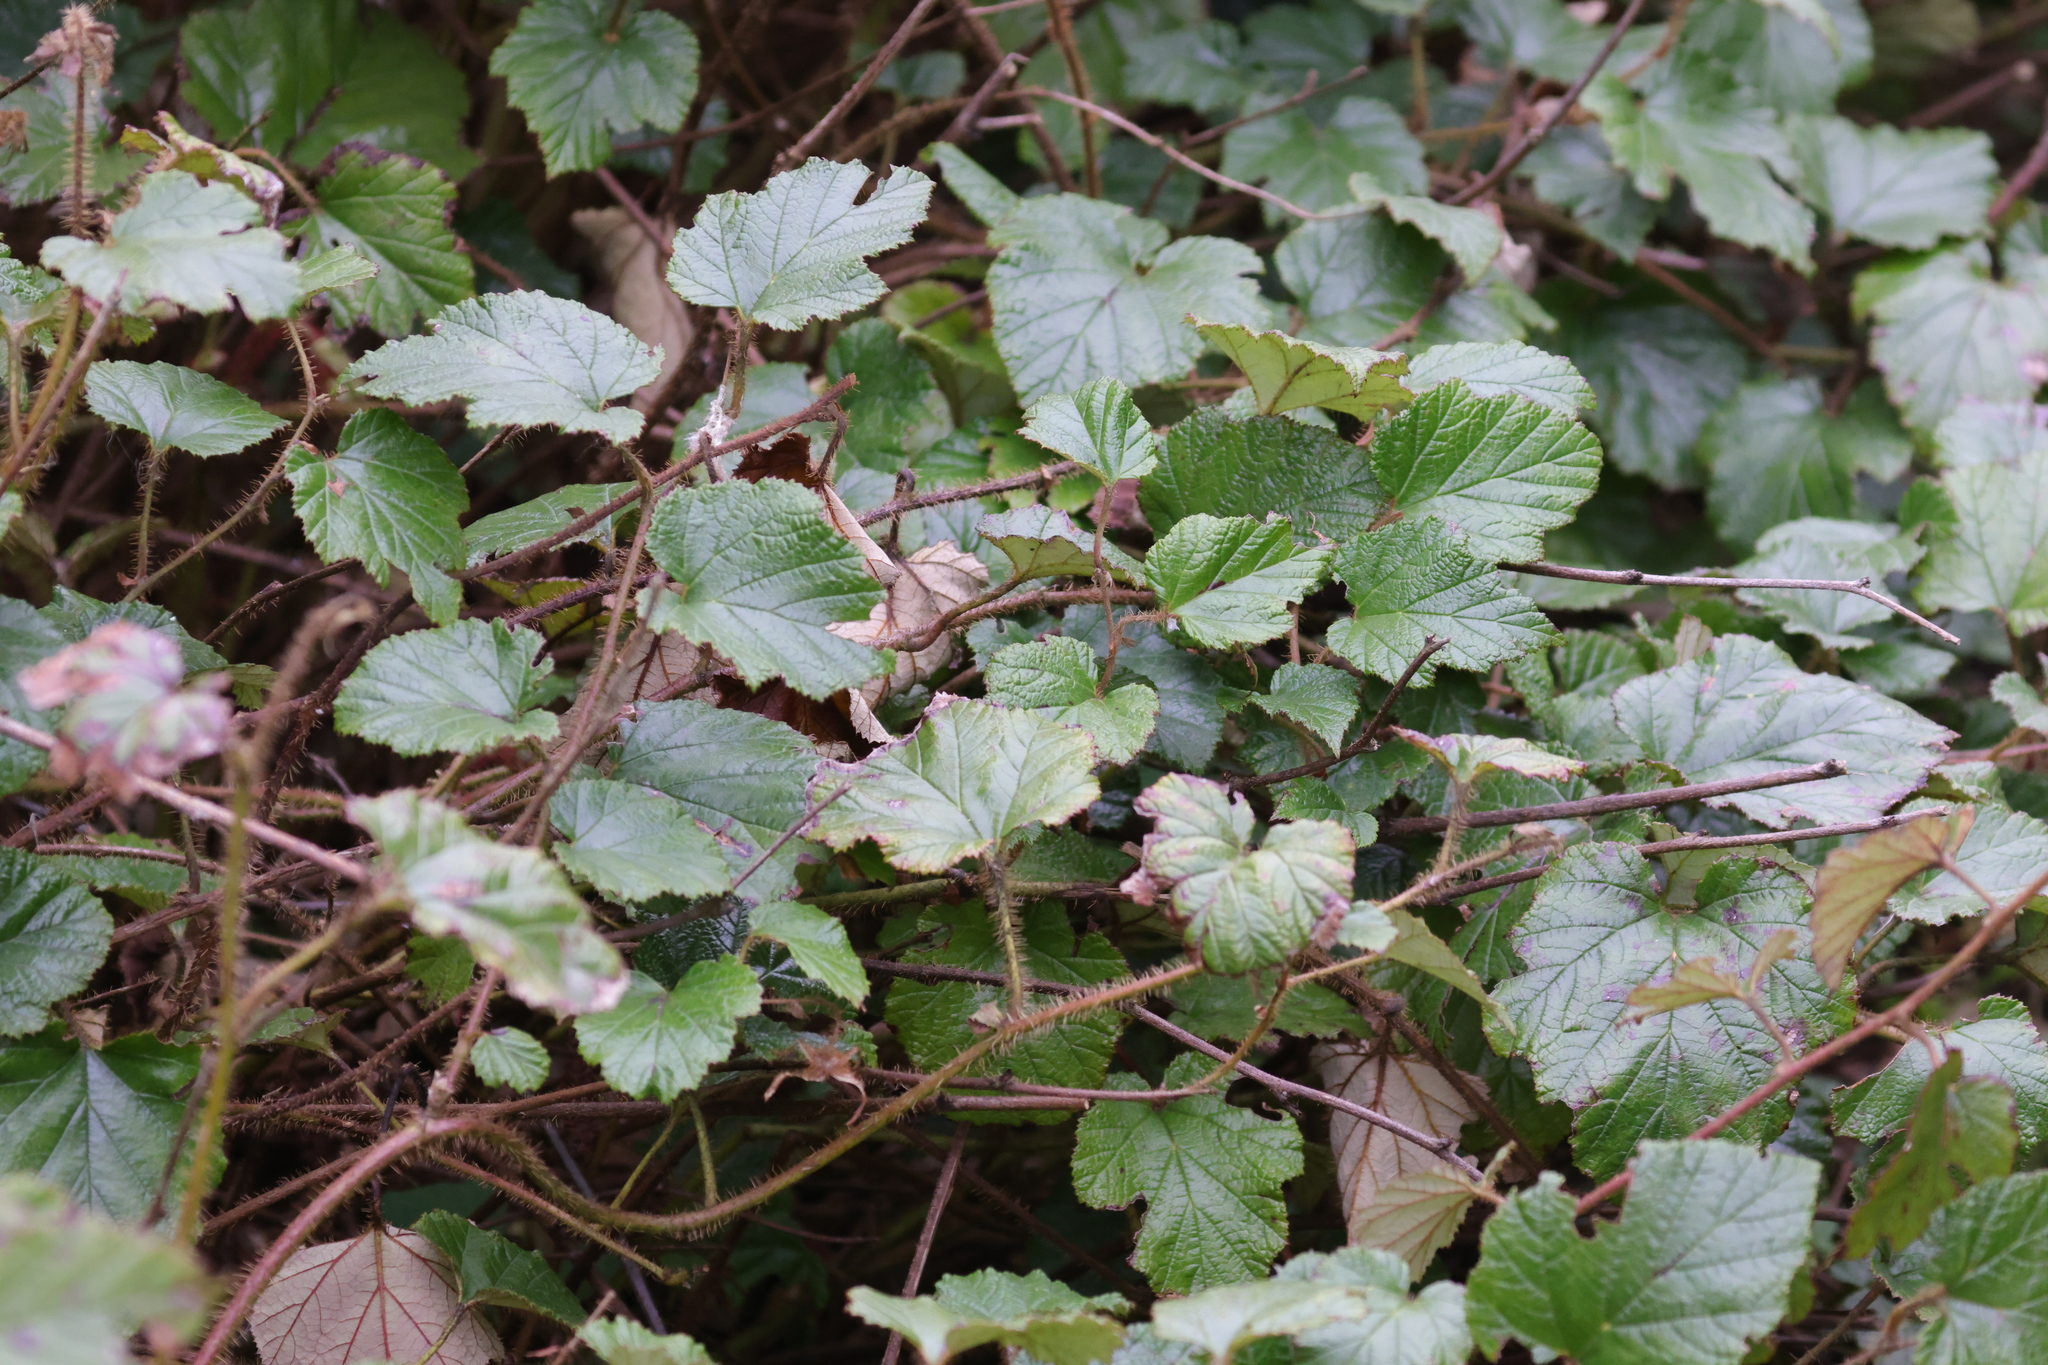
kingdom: Plantae
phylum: Tracheophyta
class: Magnoliopsida
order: Rosales
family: Rosaceae
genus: Rubus
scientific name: Rubus tricolor
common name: Chinese bramble
